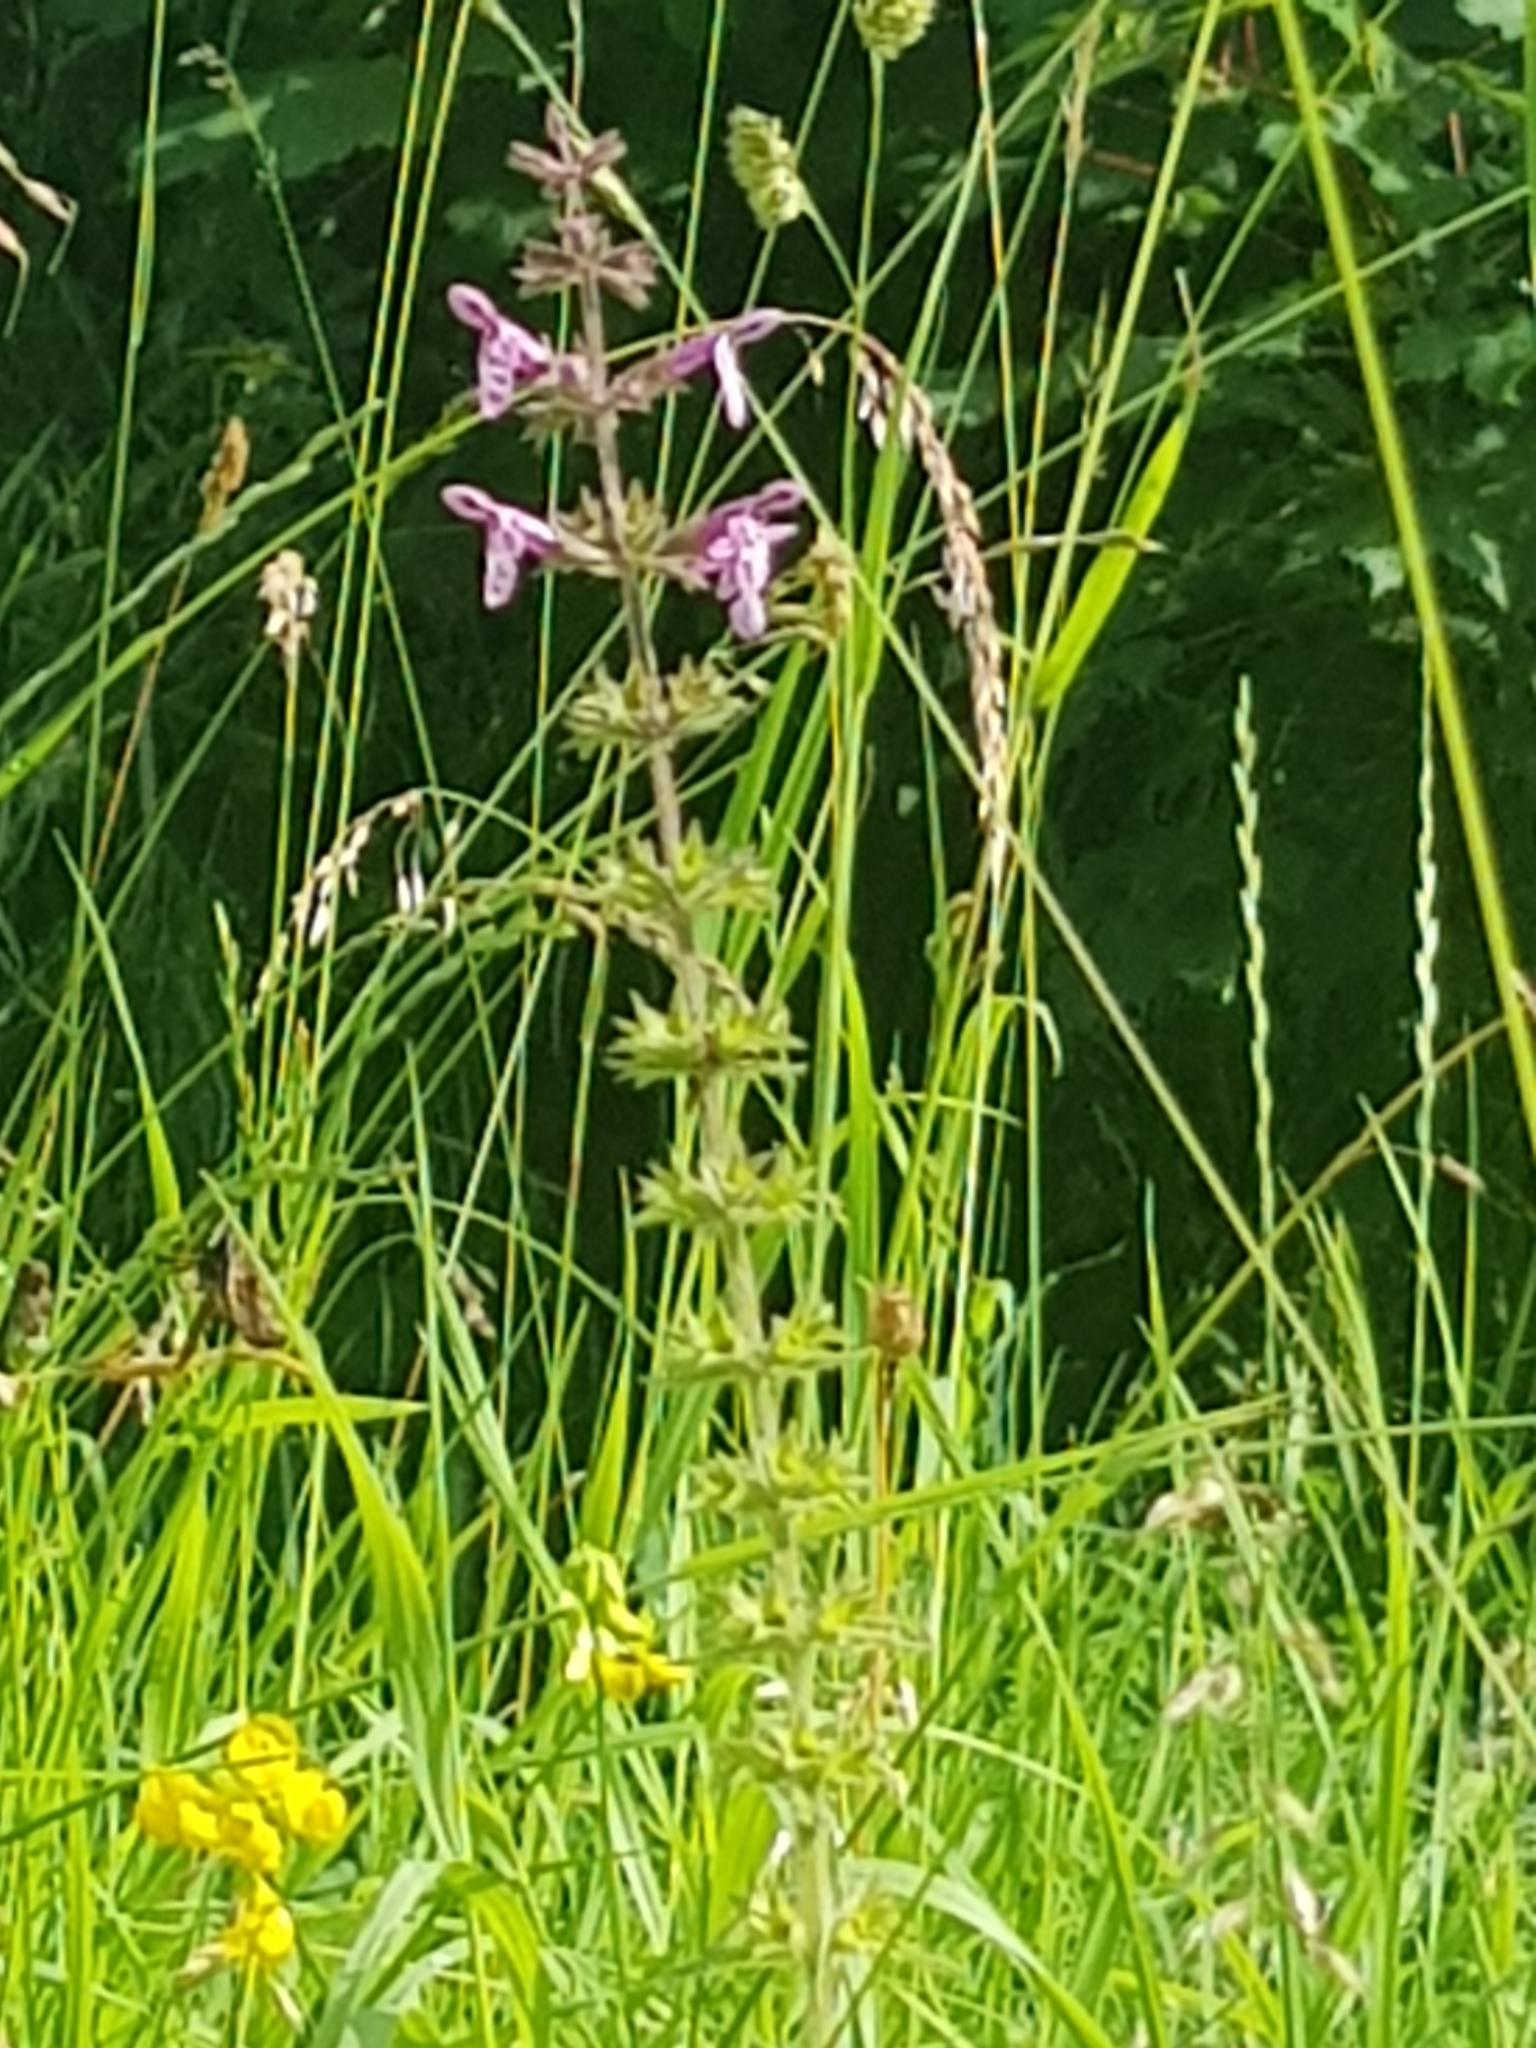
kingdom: Plantae
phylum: Tracheophyta
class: Magnoliopsida
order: Lamiales
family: Lamiaceae
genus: Stachys
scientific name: Stachys sylvatica
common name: Hedge woundwort
